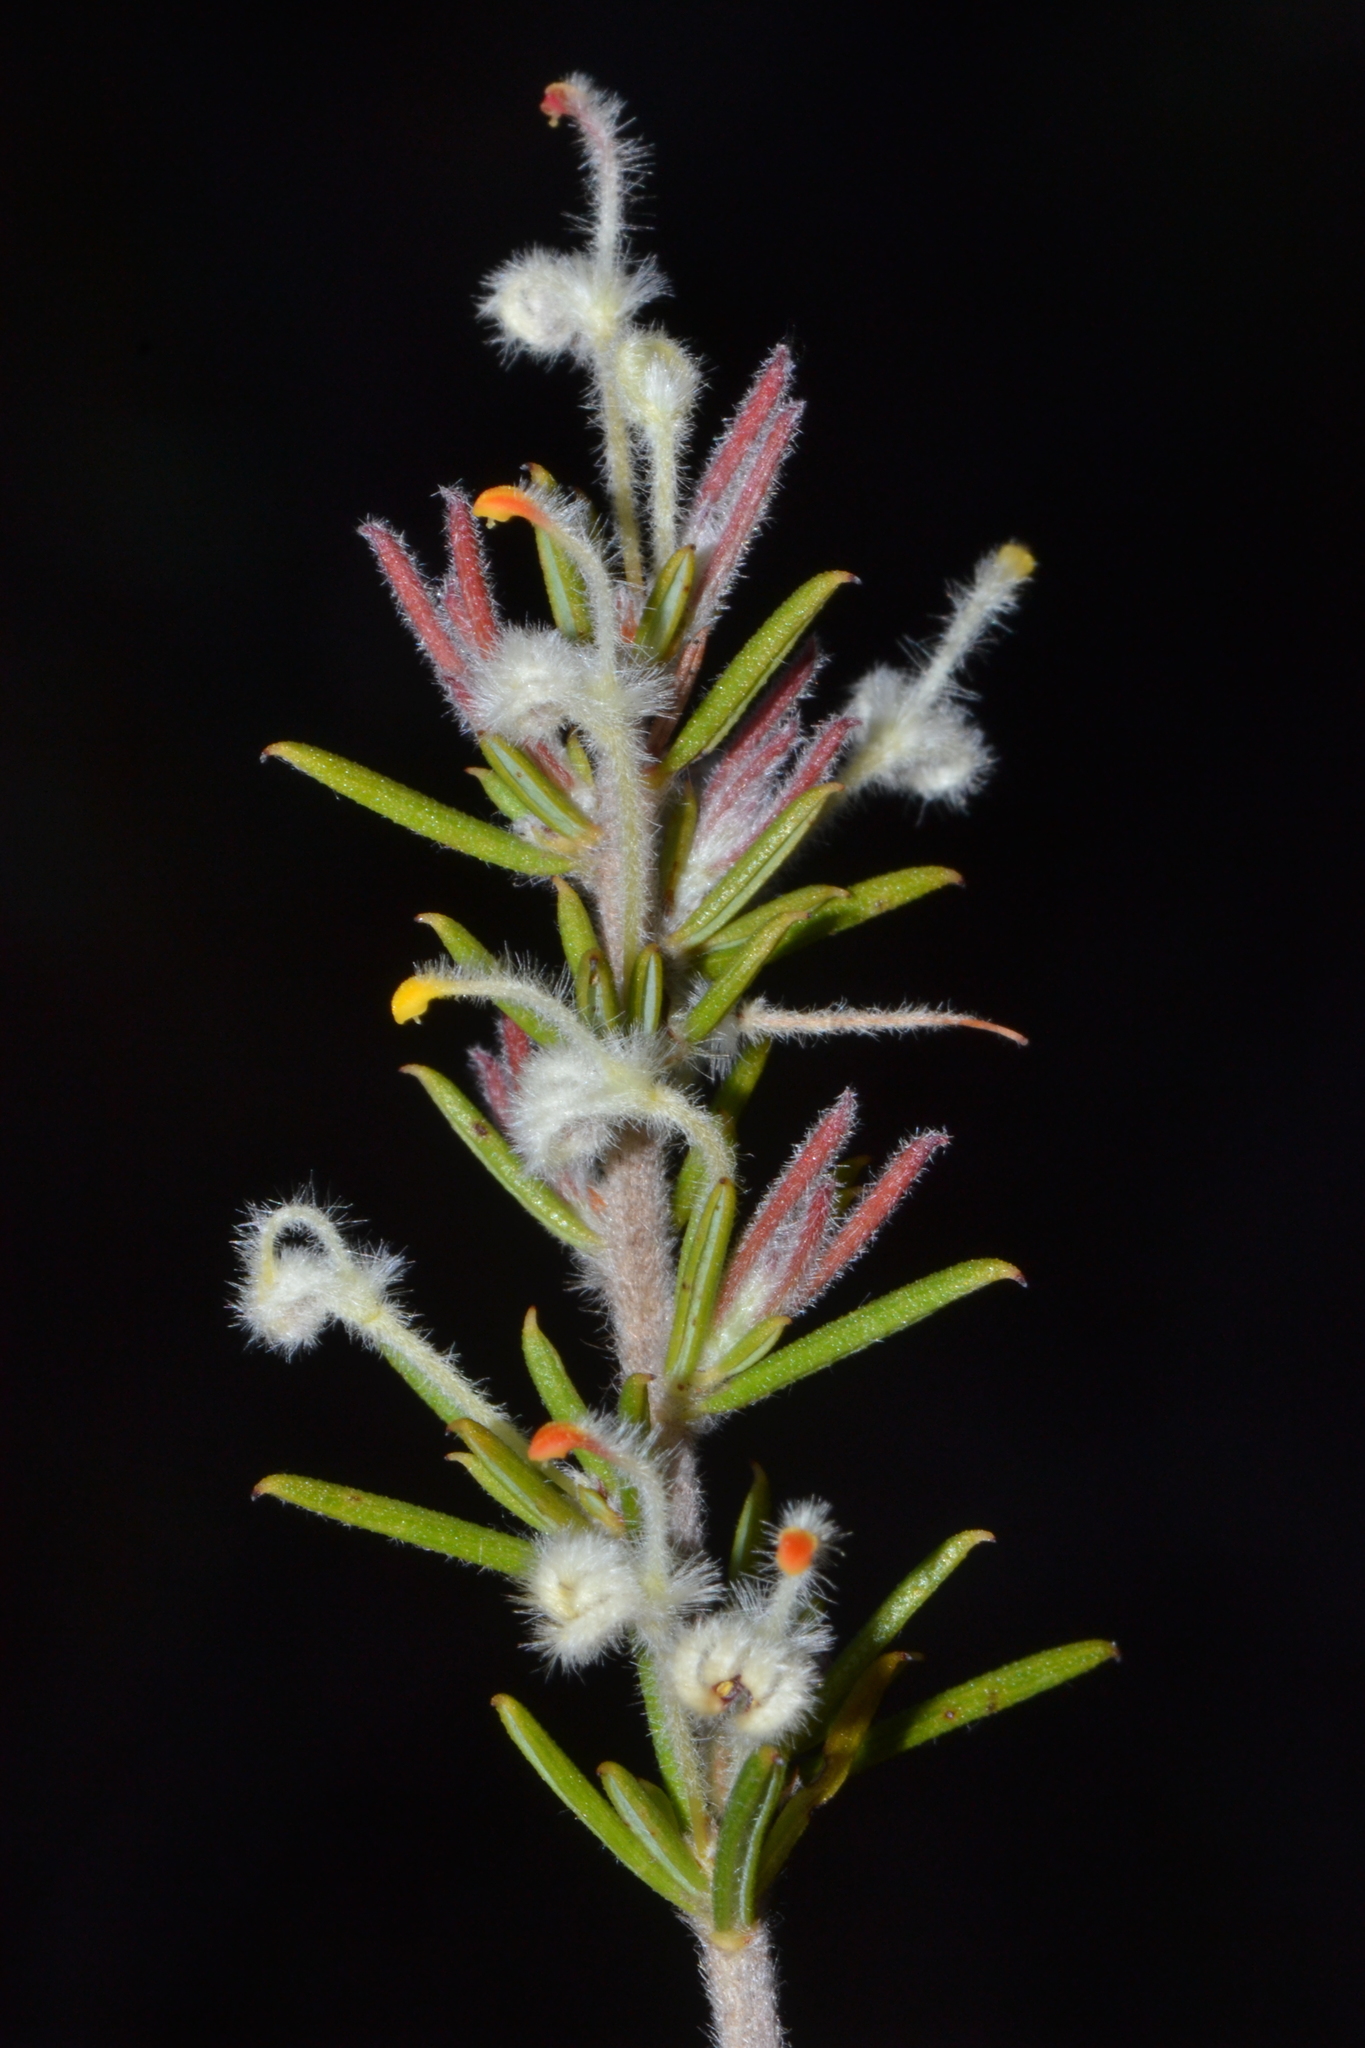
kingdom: Plantae
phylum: Tracheophyta
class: Magnoliopsida
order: Proteales
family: Proteaceae
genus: Grevillea
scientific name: Grevillea uncinulata
